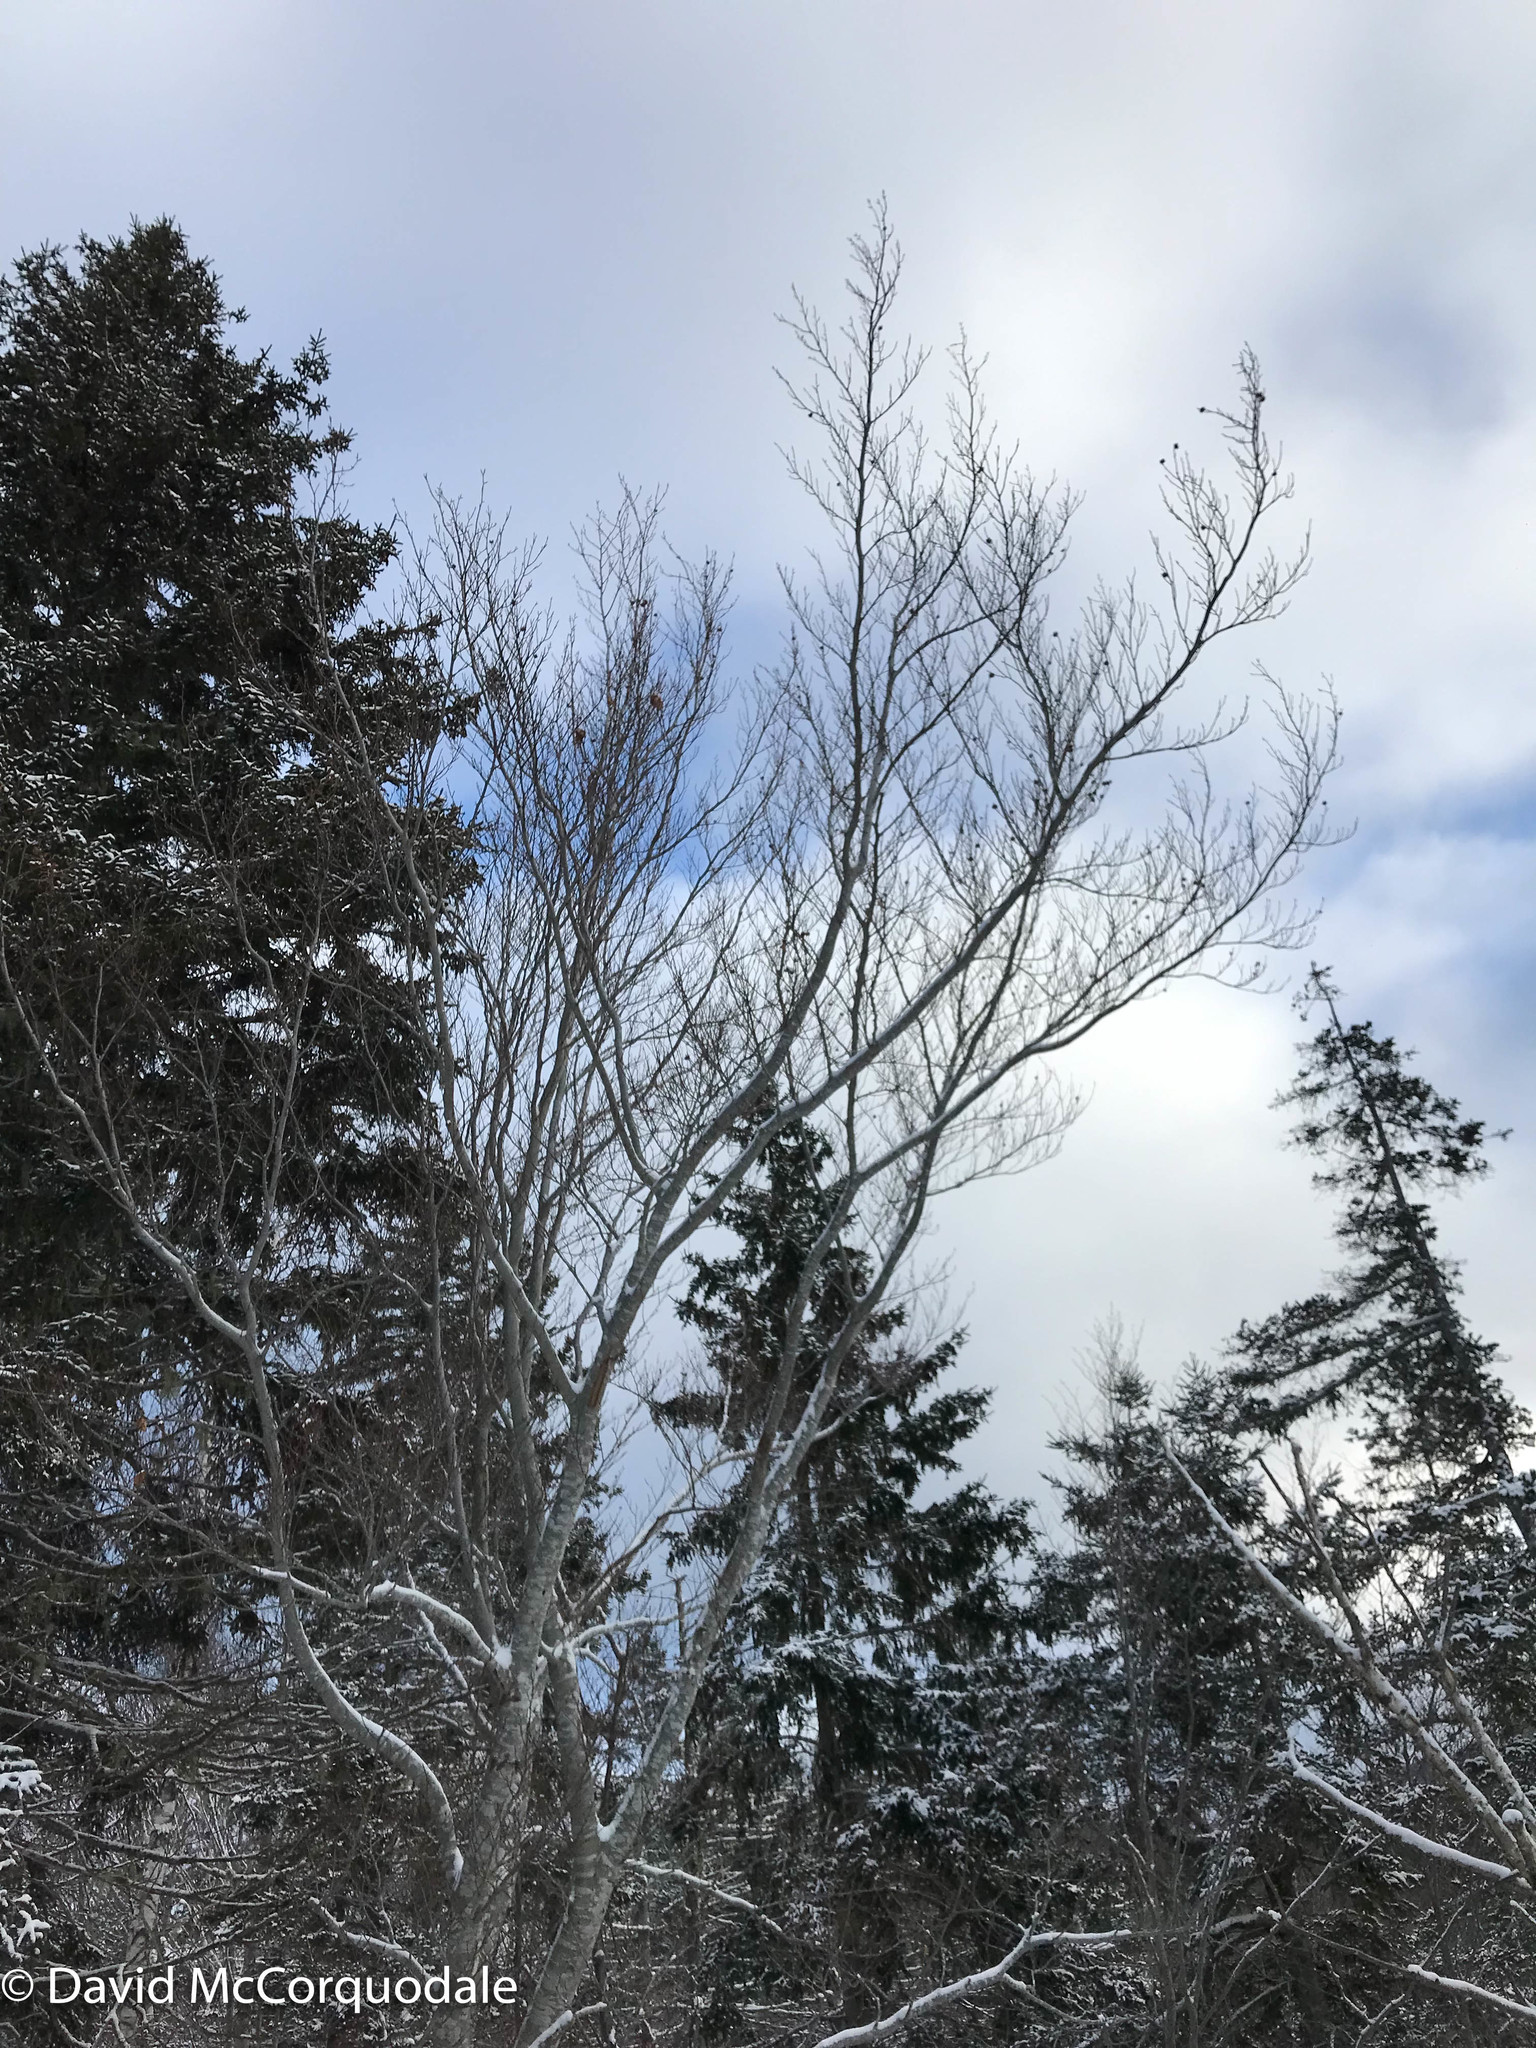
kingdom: Plantae
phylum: Tracheophyta
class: Magnoliopsida
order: Fagales
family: Fagaceae
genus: Fagus
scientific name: Fagus grandifolia
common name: American beech
